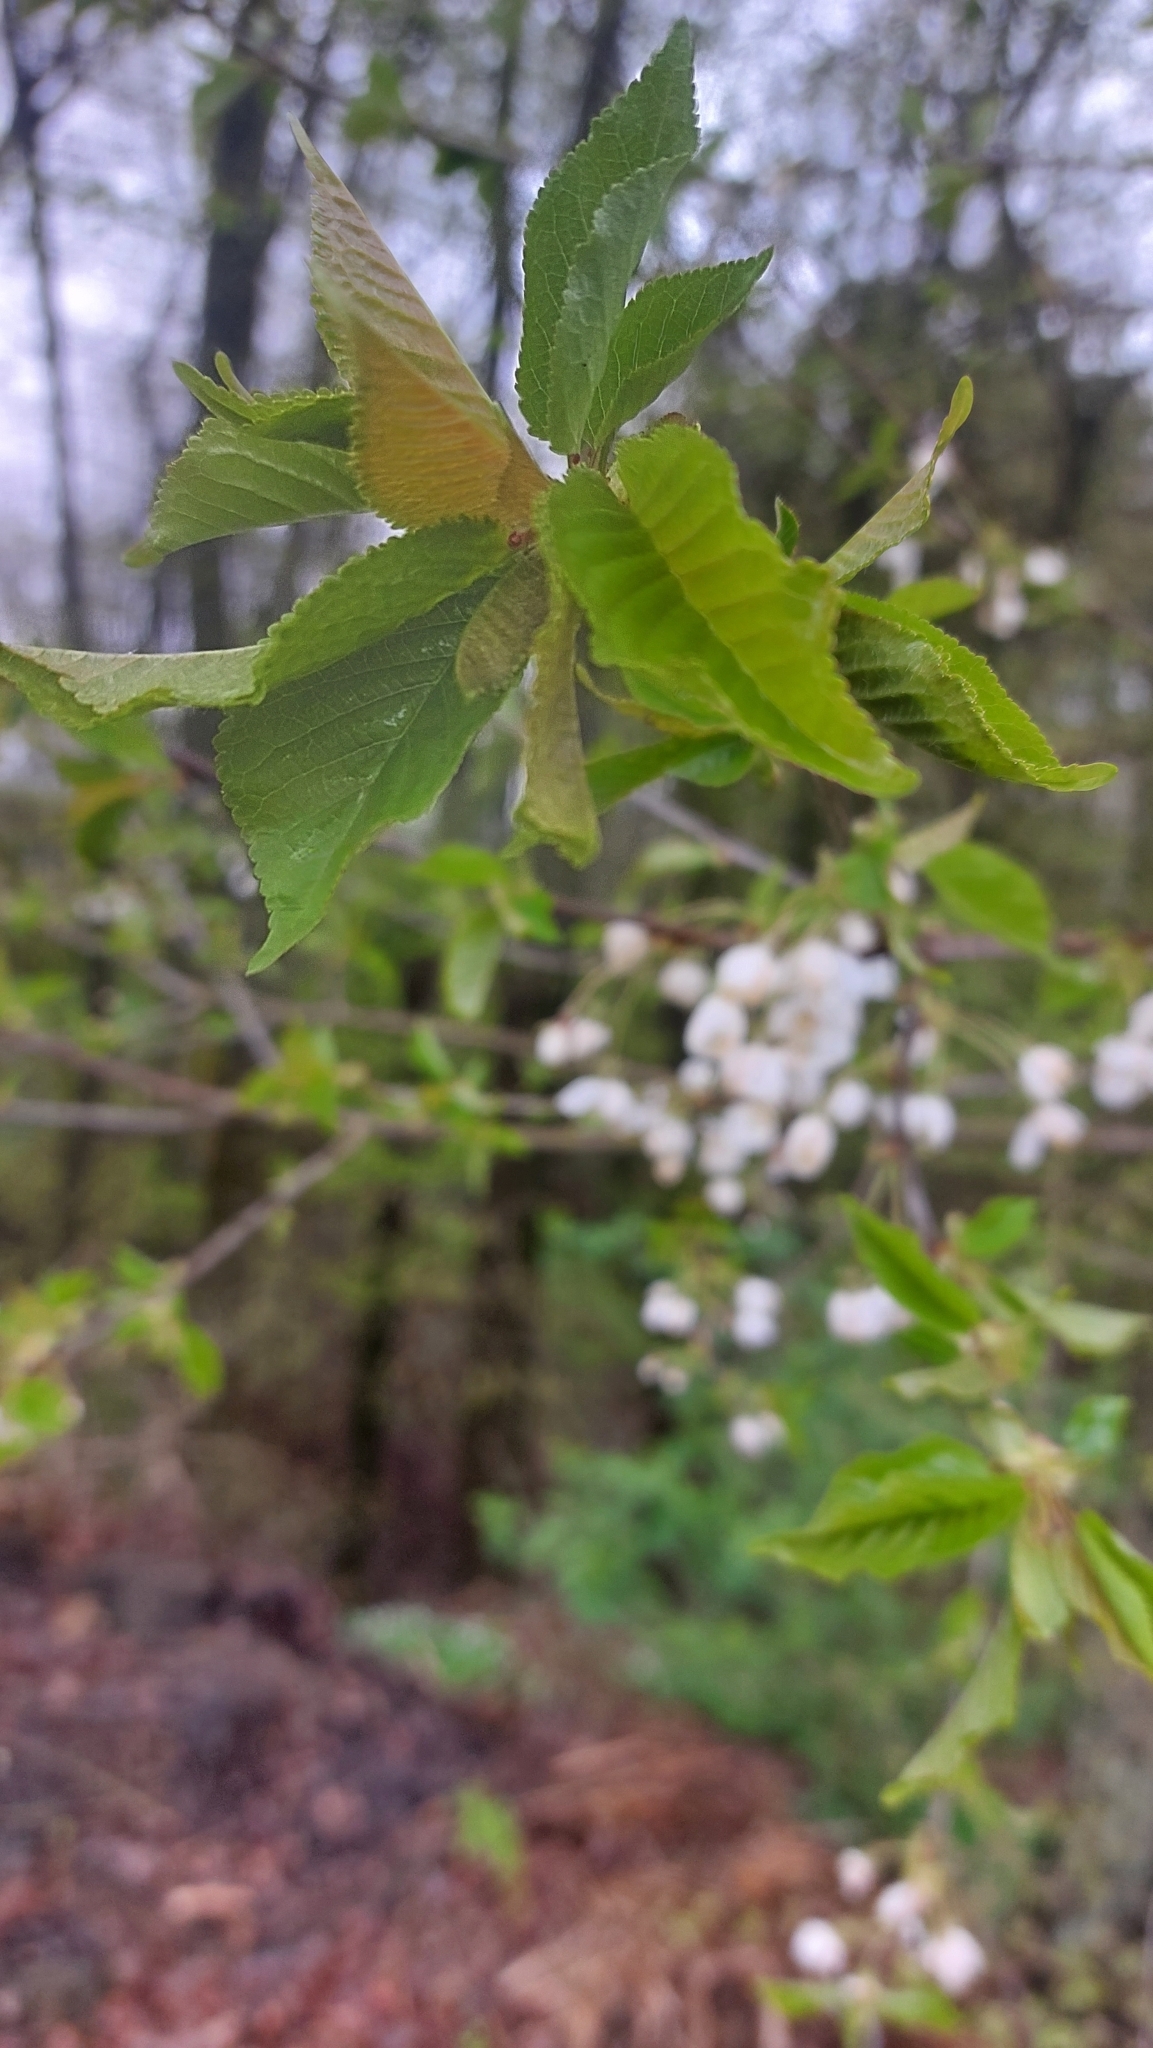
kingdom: Plantae
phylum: Tracheophyta
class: Magnoliopsida
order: Rosales
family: Rosaceae
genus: Prunus
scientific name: Prunus avium
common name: Sweet cherry
